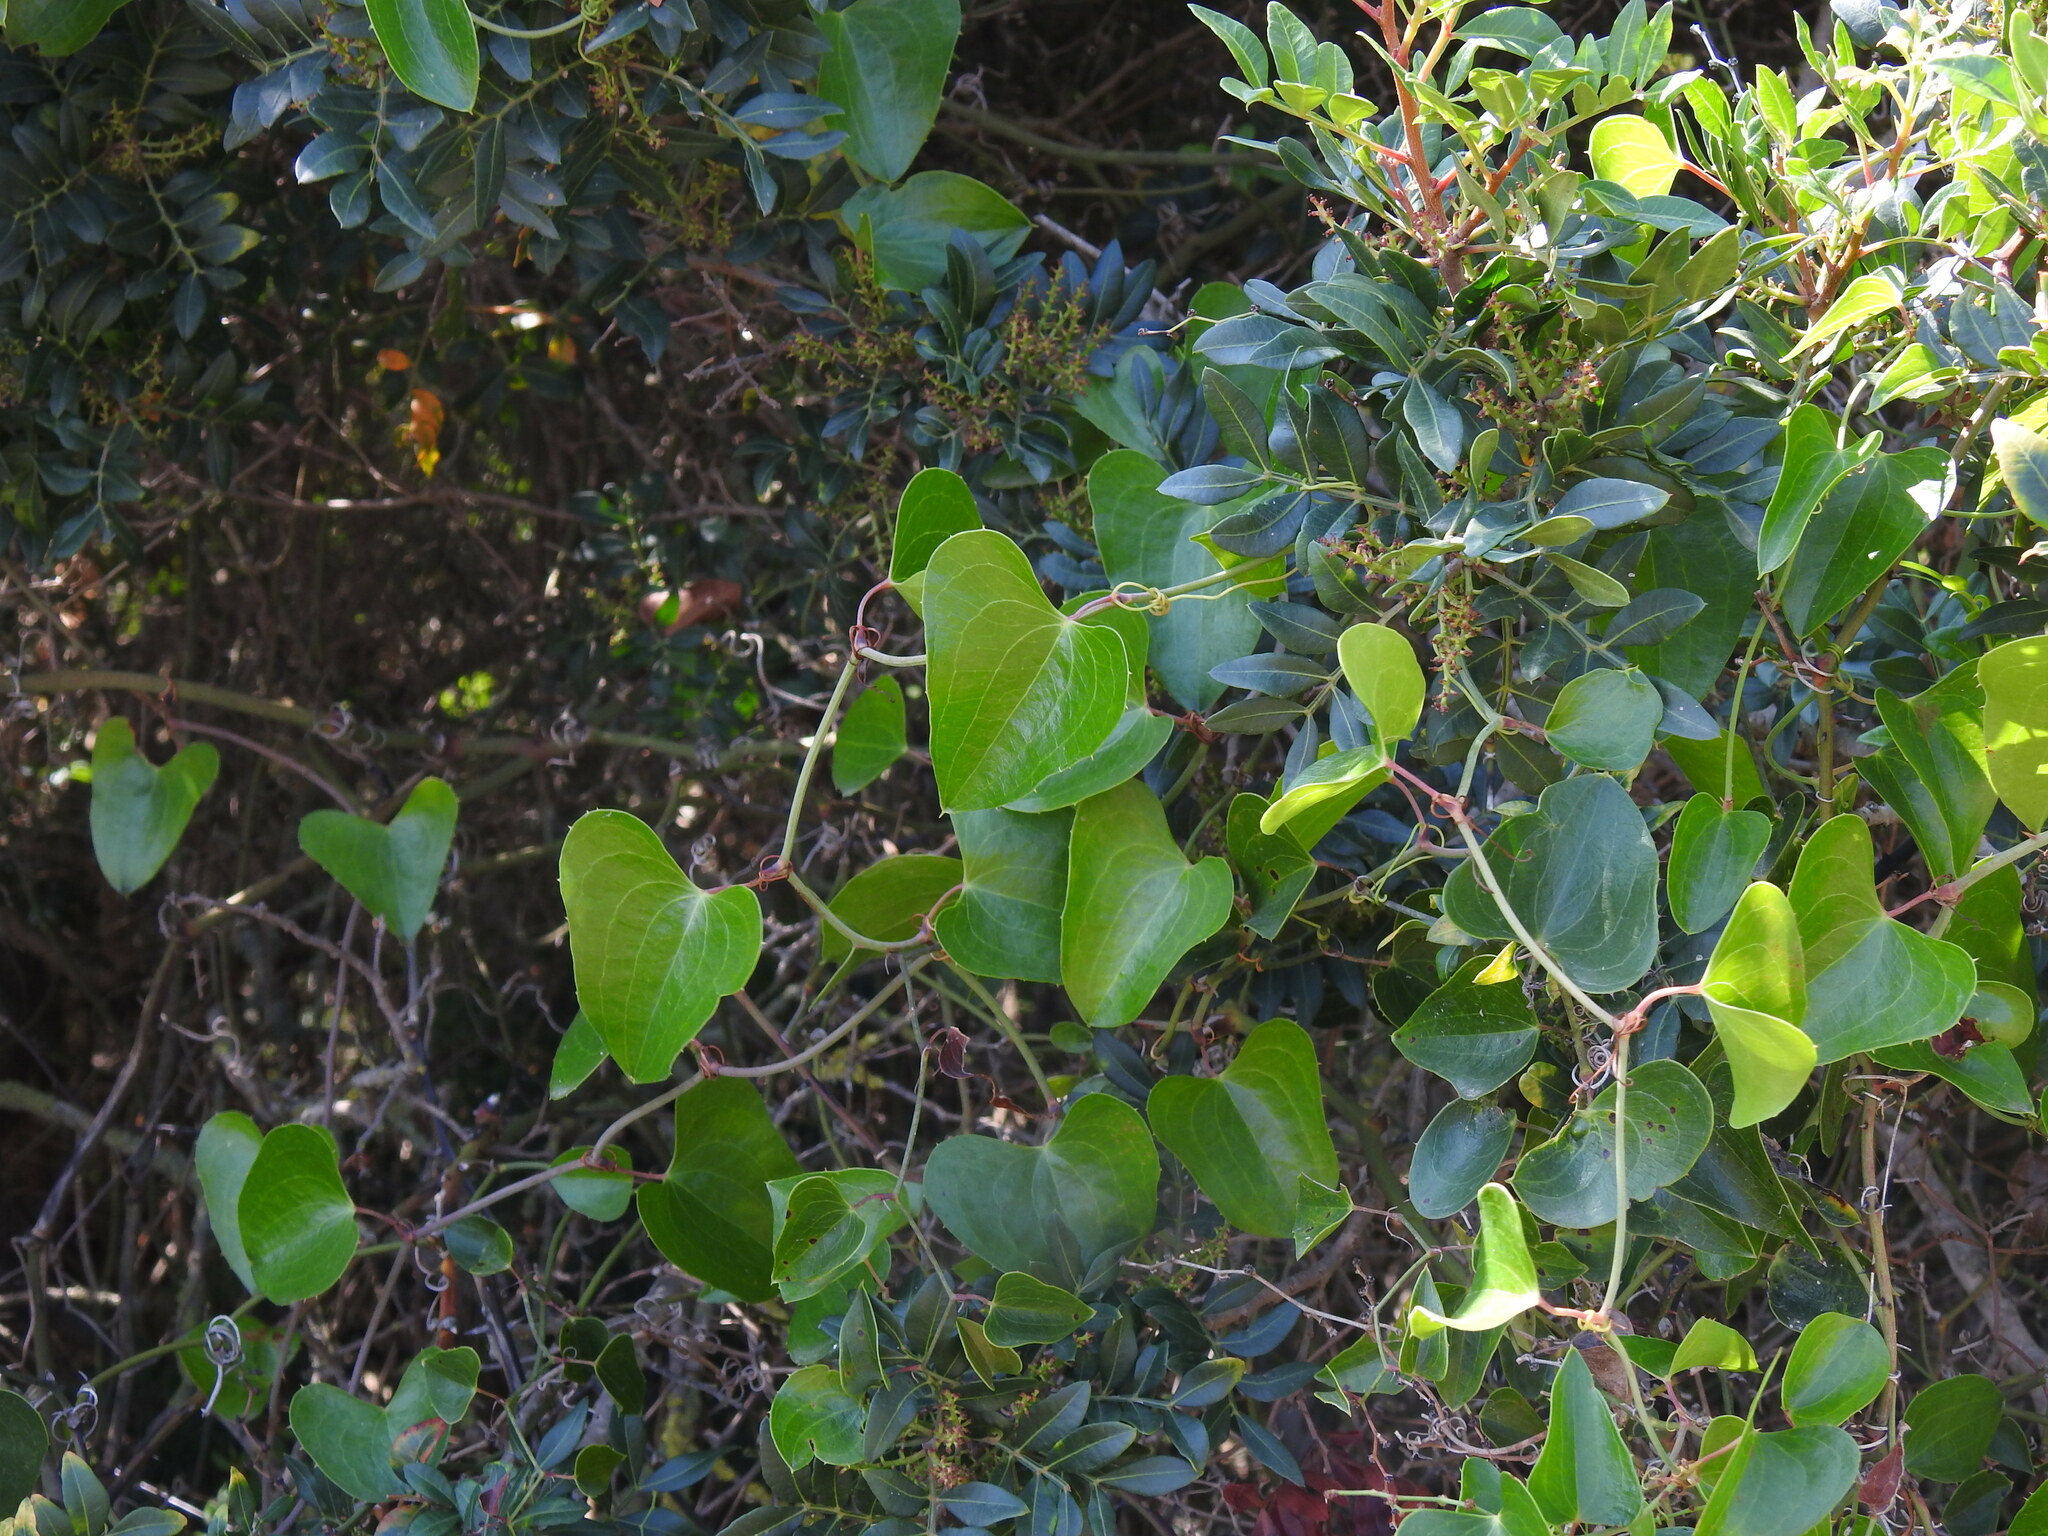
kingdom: Plantae
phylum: Tracheophyta
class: Liliopsida
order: Liliales
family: Smilacaceae
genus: Smilax
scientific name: Smilax aspera
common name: Common smilax
